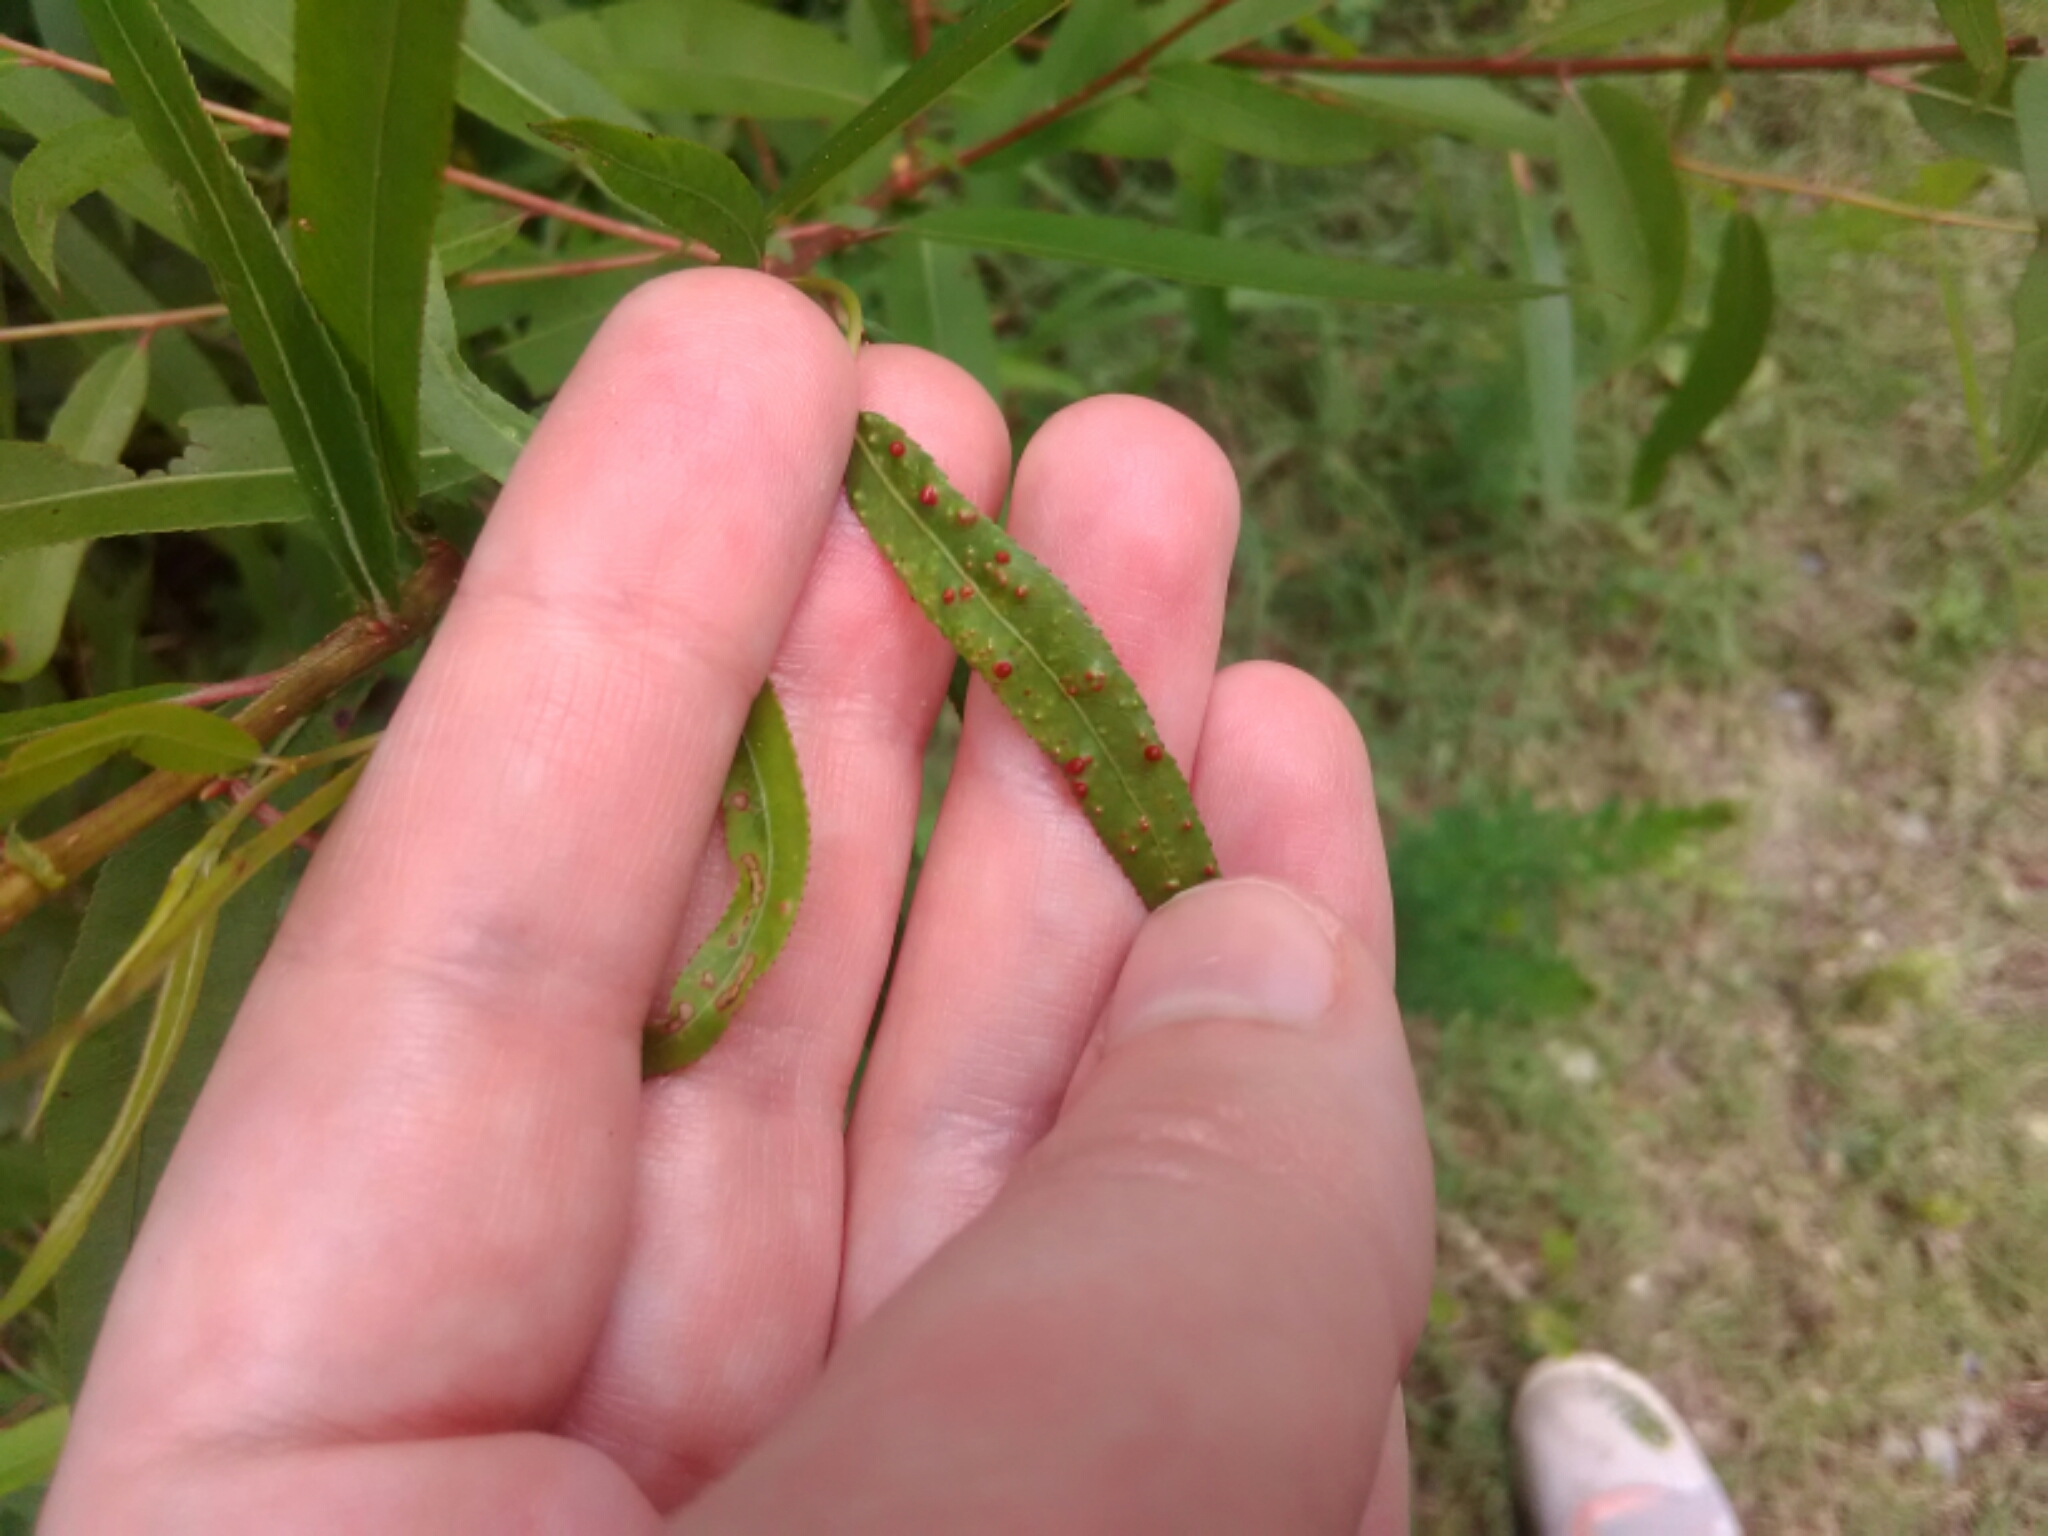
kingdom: Animalia
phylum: Arthropoda
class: Arachnida
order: Trombidiformes
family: Eriophyidae
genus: Aculus
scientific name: Aculus tetanothrix
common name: Willow bead gall mite
